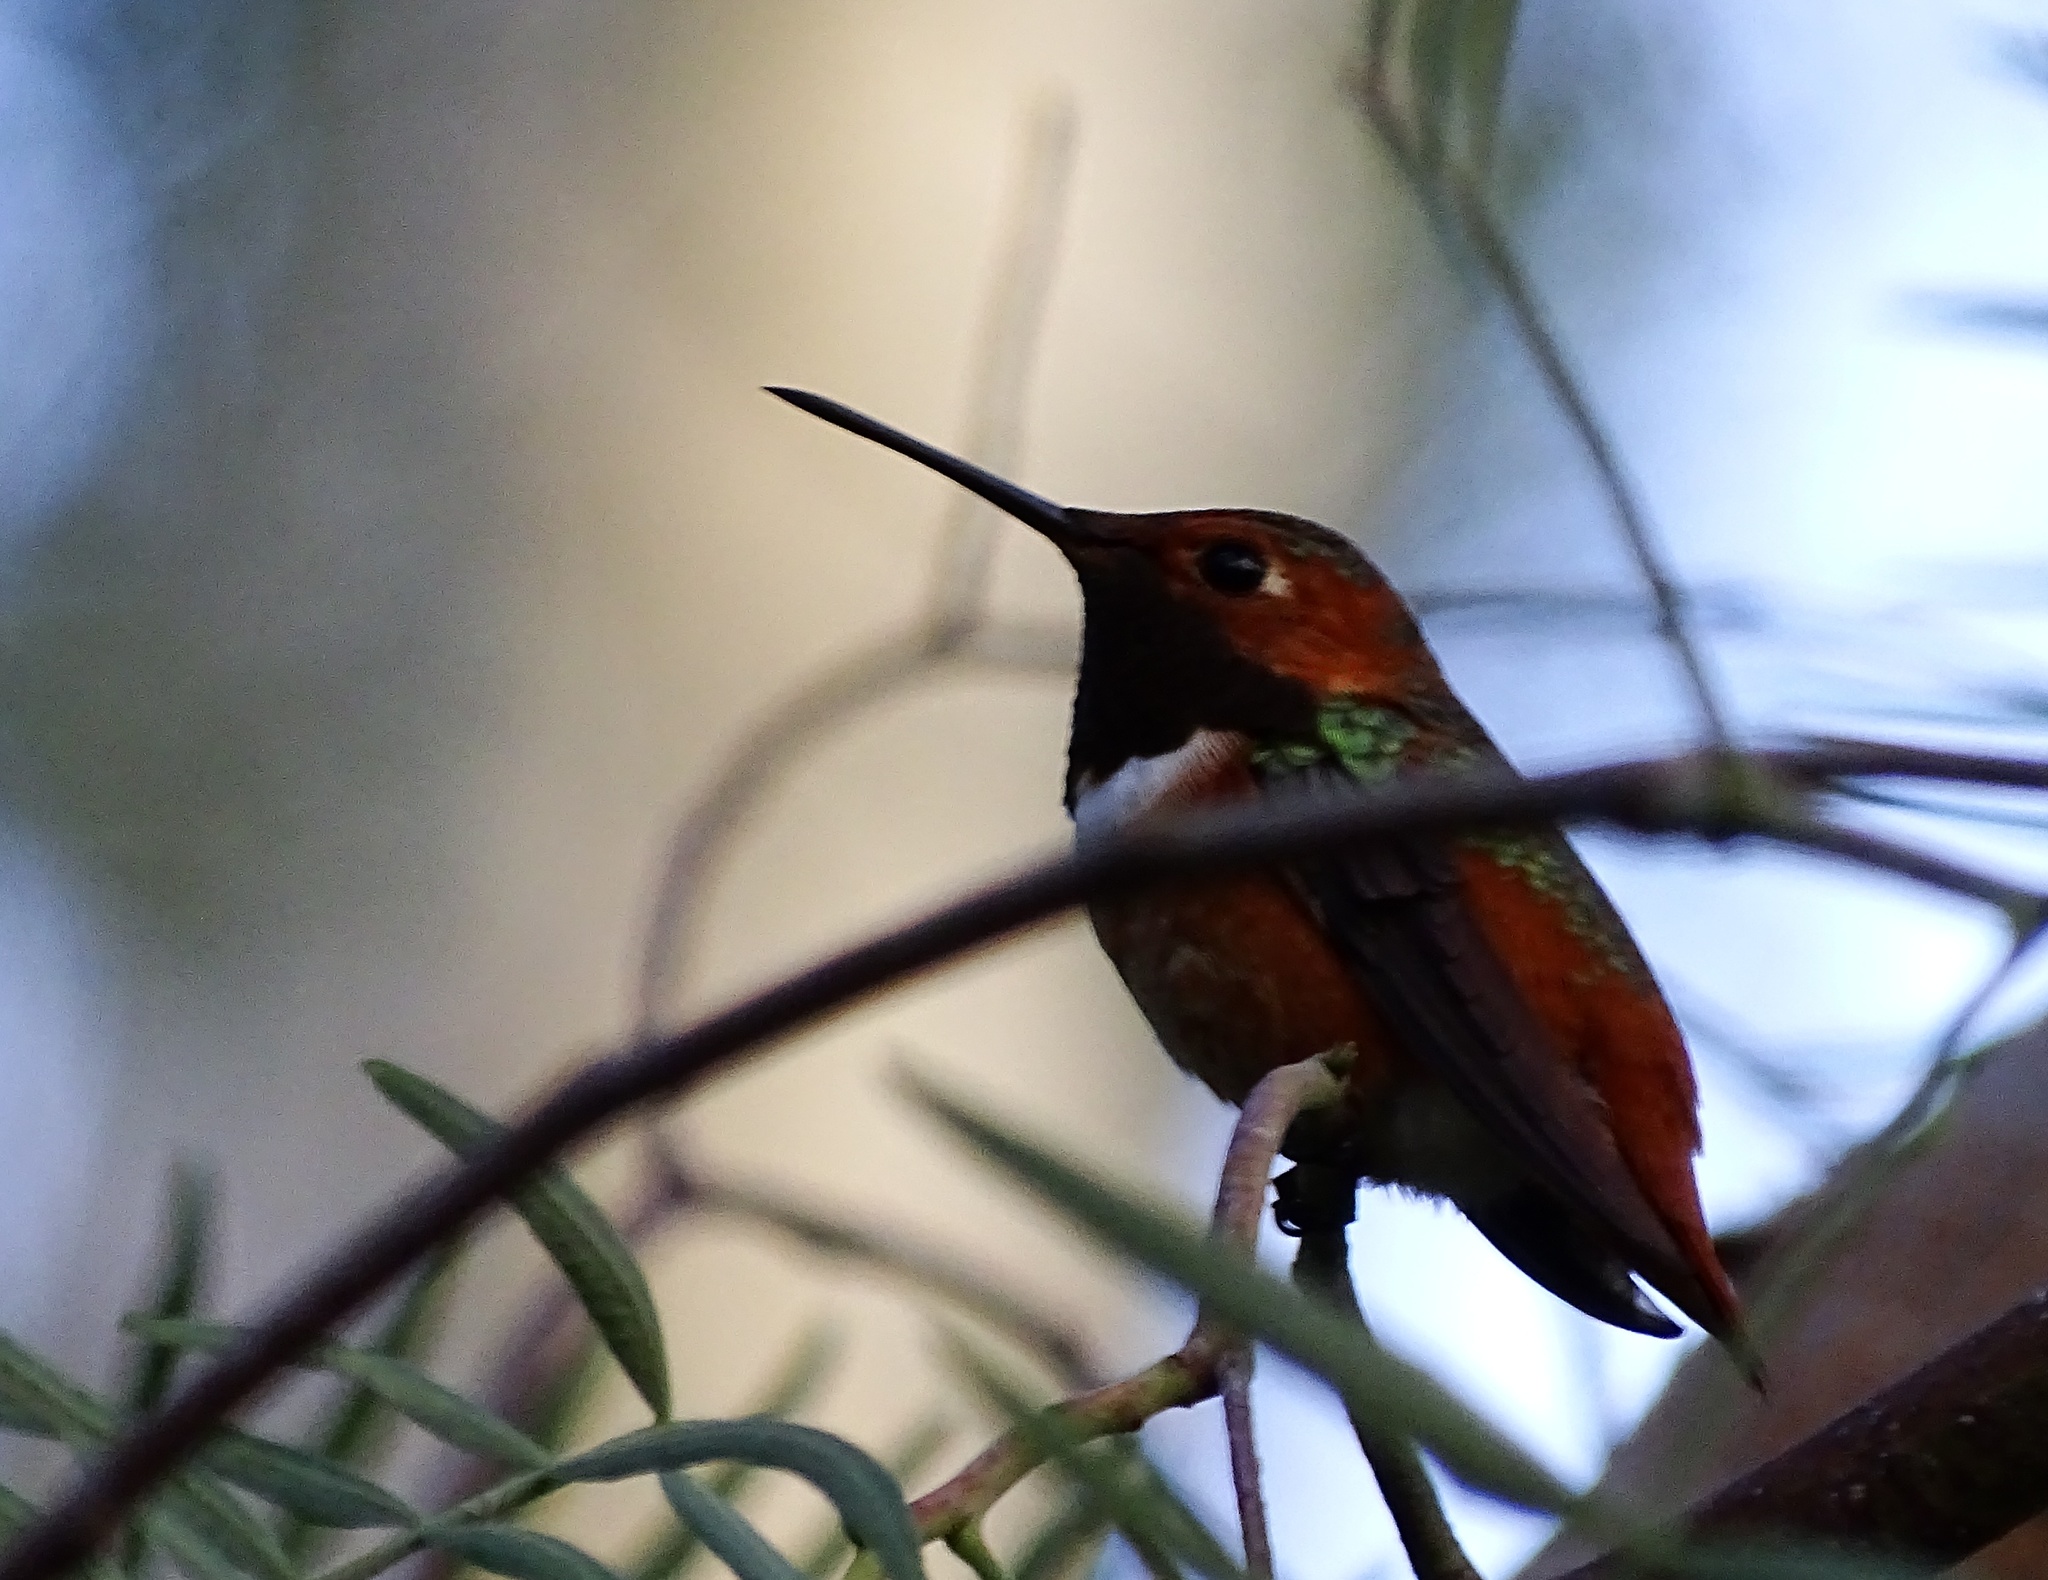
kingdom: Animalia
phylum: Chordata
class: Aves
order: Apodiformes
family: Trochilidae
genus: Selasphorus
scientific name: Selasphorus sasin
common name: Allen's hummingbird
